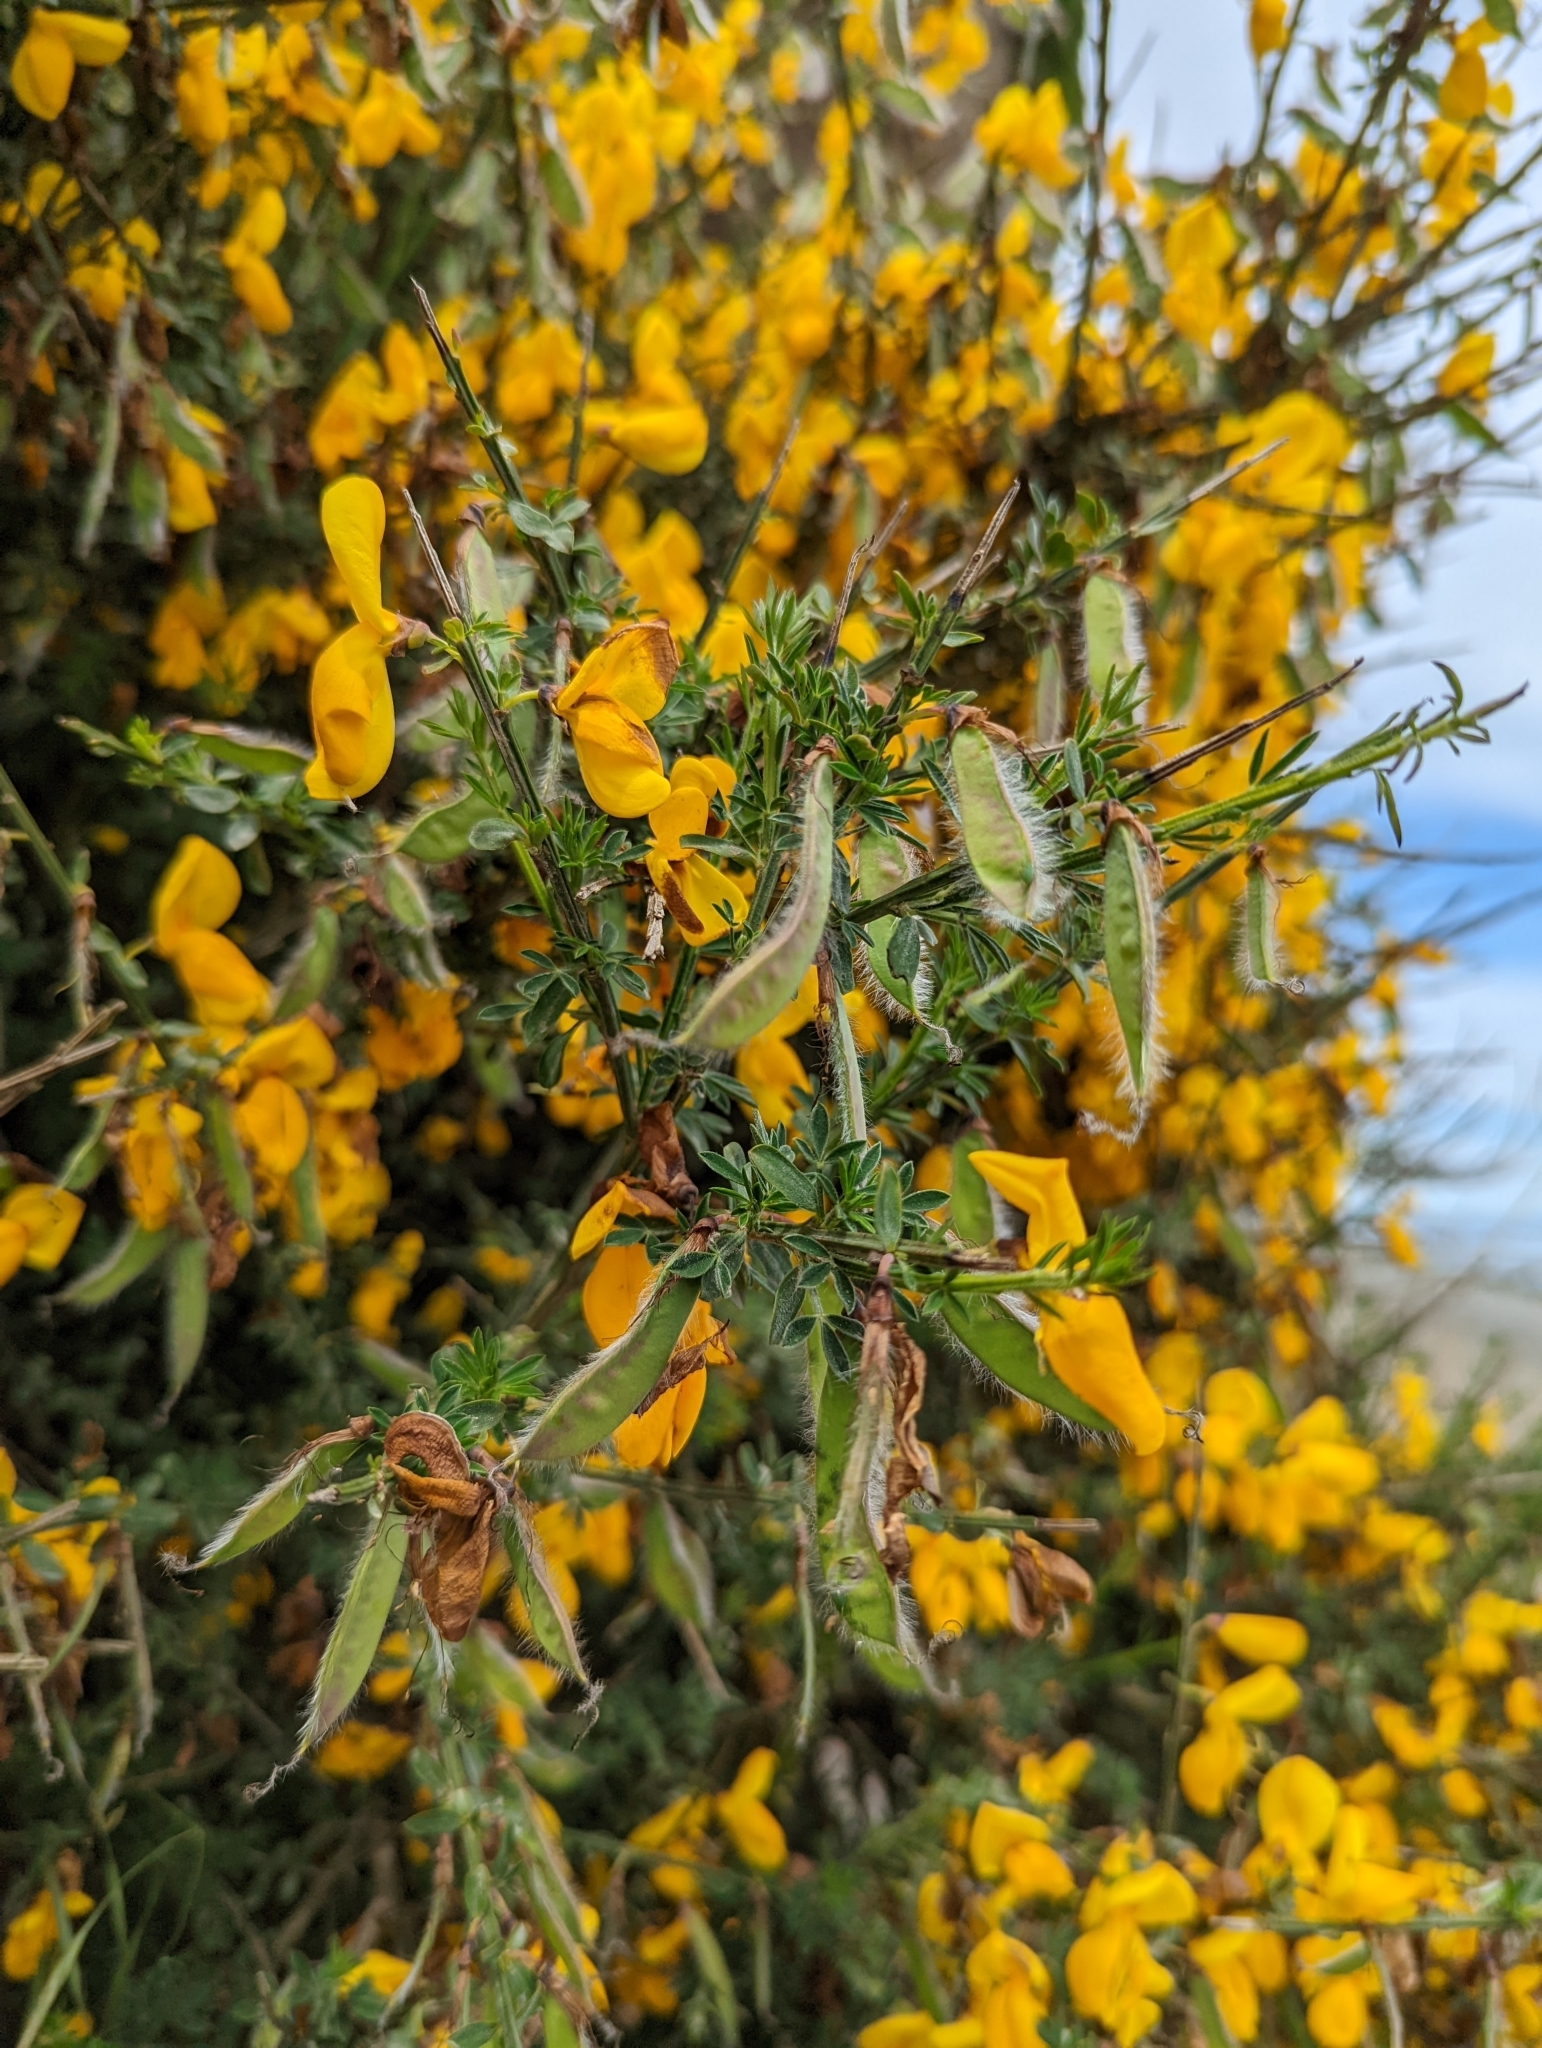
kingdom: Plantae
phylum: Tracheophyta
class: Magnoliopsida
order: Fabales
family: Fabaceae
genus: Cytisus
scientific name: Cytisus scoparius
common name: Scotch broom
